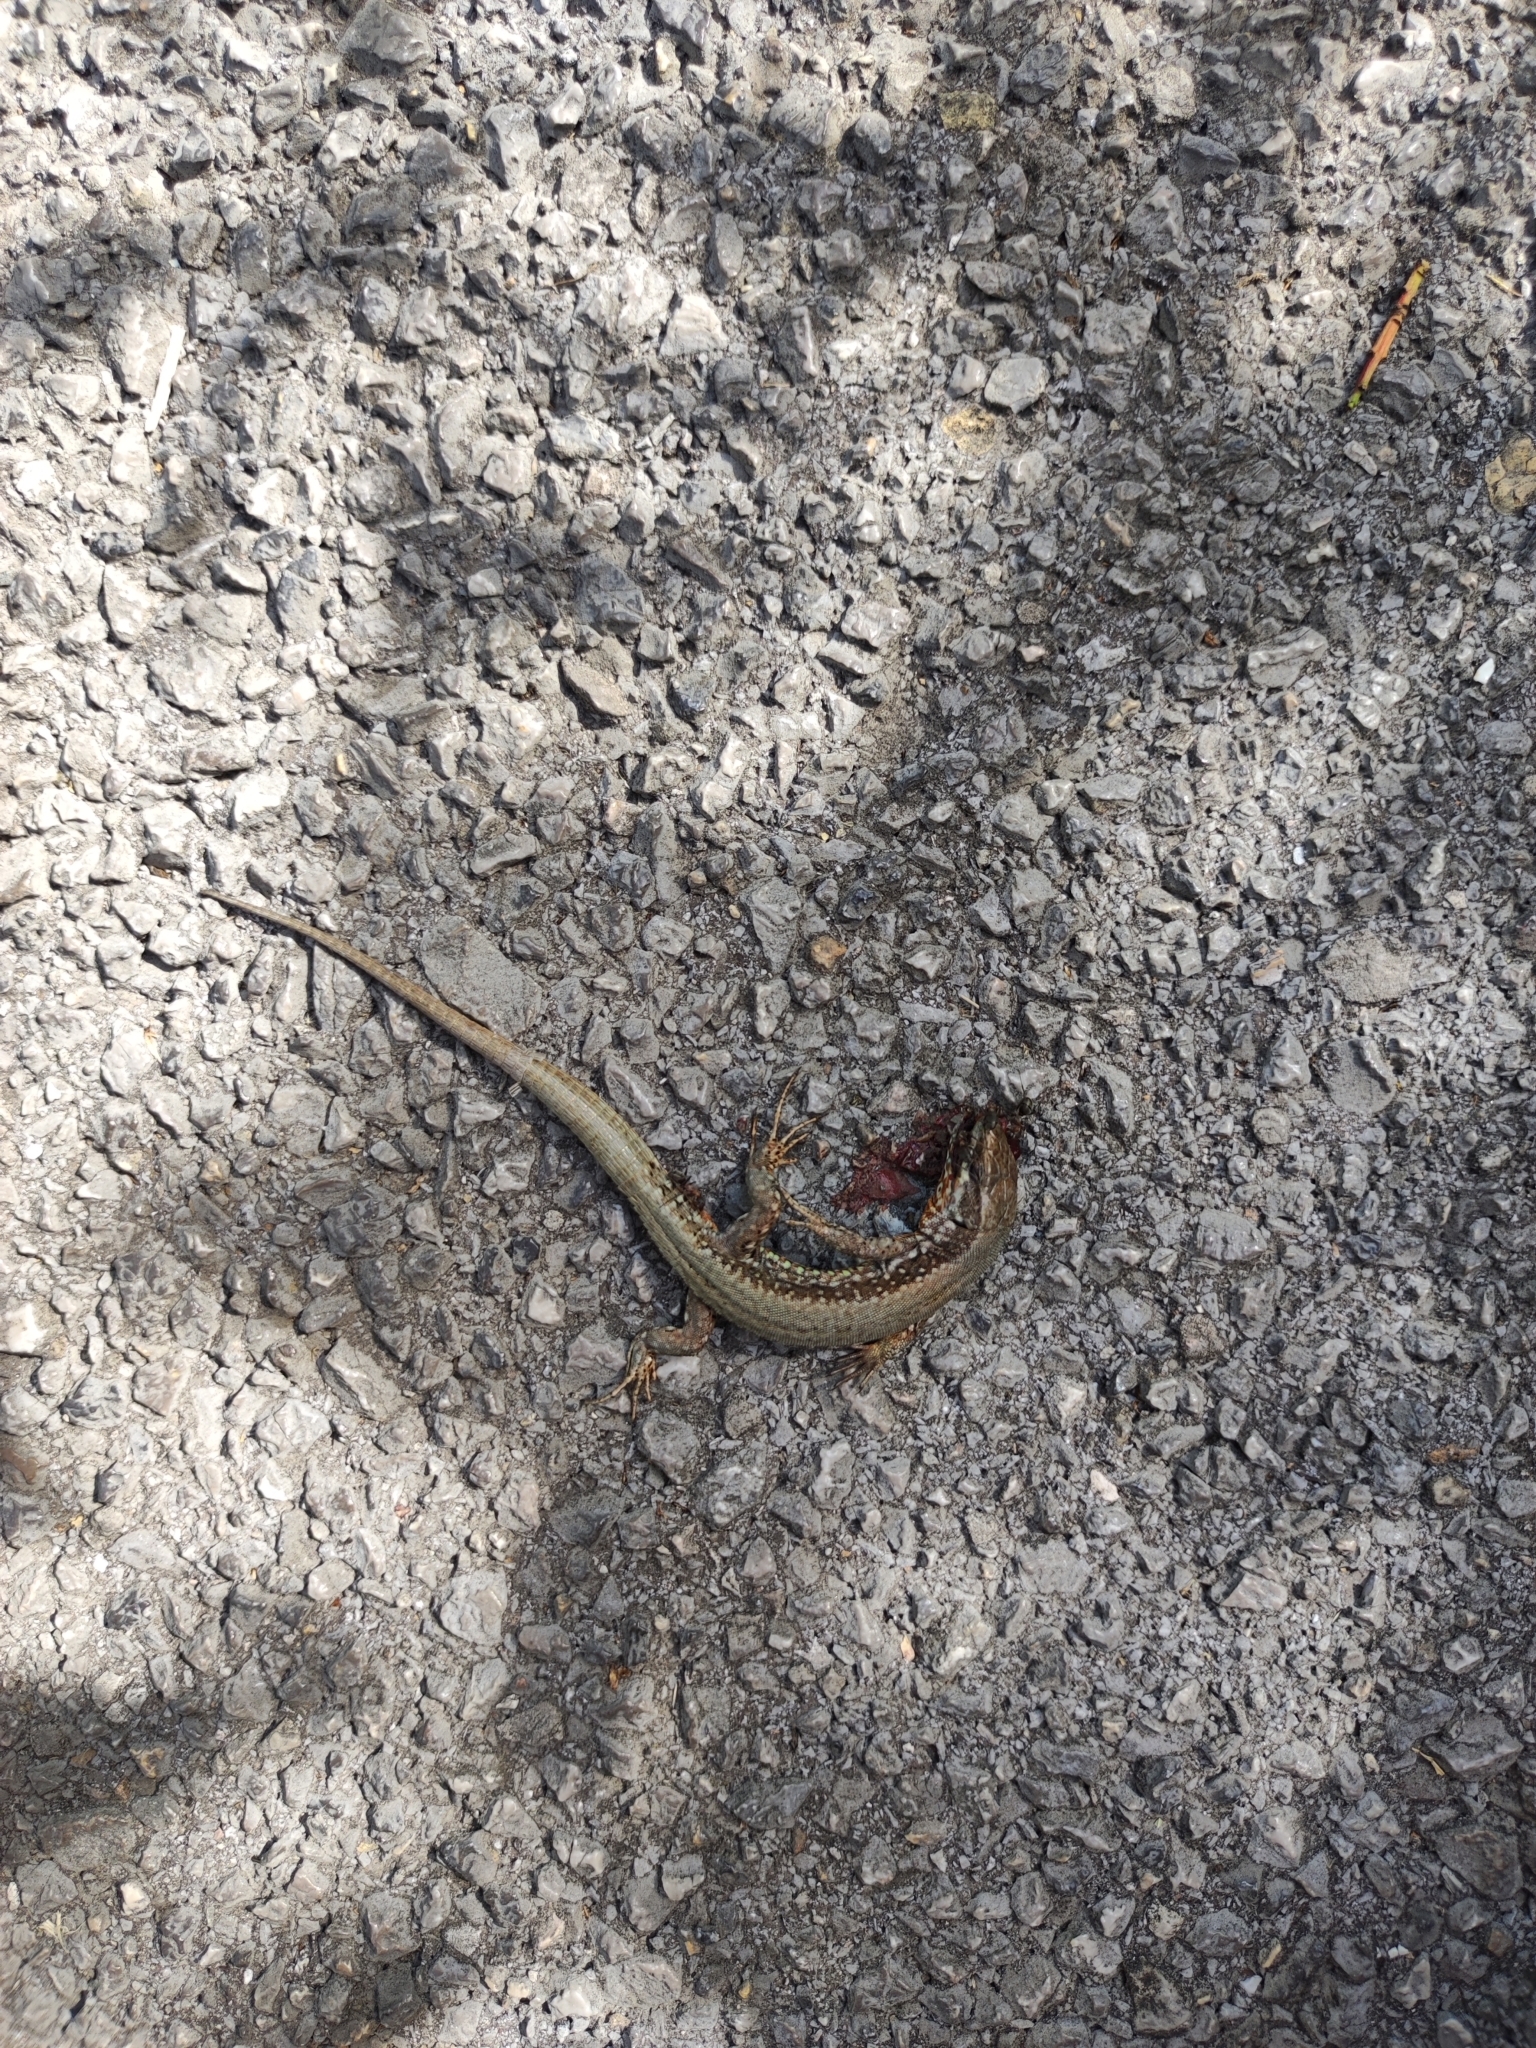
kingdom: Animalia
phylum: Chordata
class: Squamata
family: Lacertidae
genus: Podarcis
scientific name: Podarcis muralis
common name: Common wall lizard
